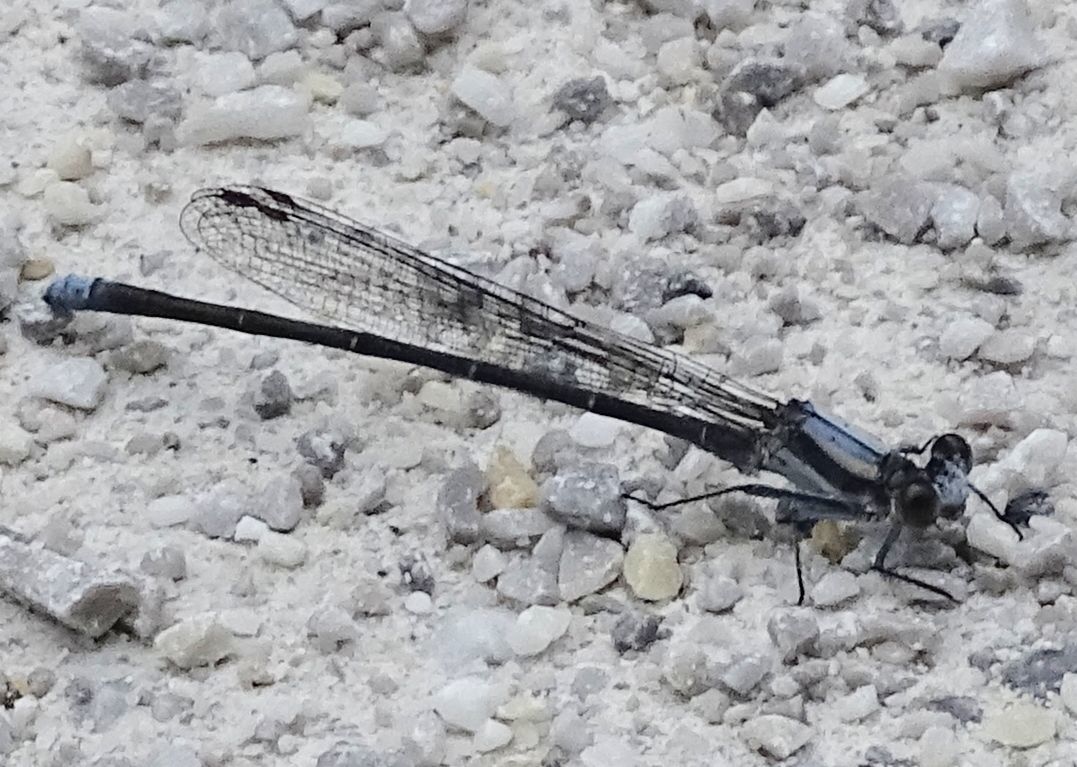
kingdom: Animalia
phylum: Arthropoda
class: Insecta
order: Odonata
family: Coenagrionidae
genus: Argia
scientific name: Argia moesta
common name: Powdered dancer
